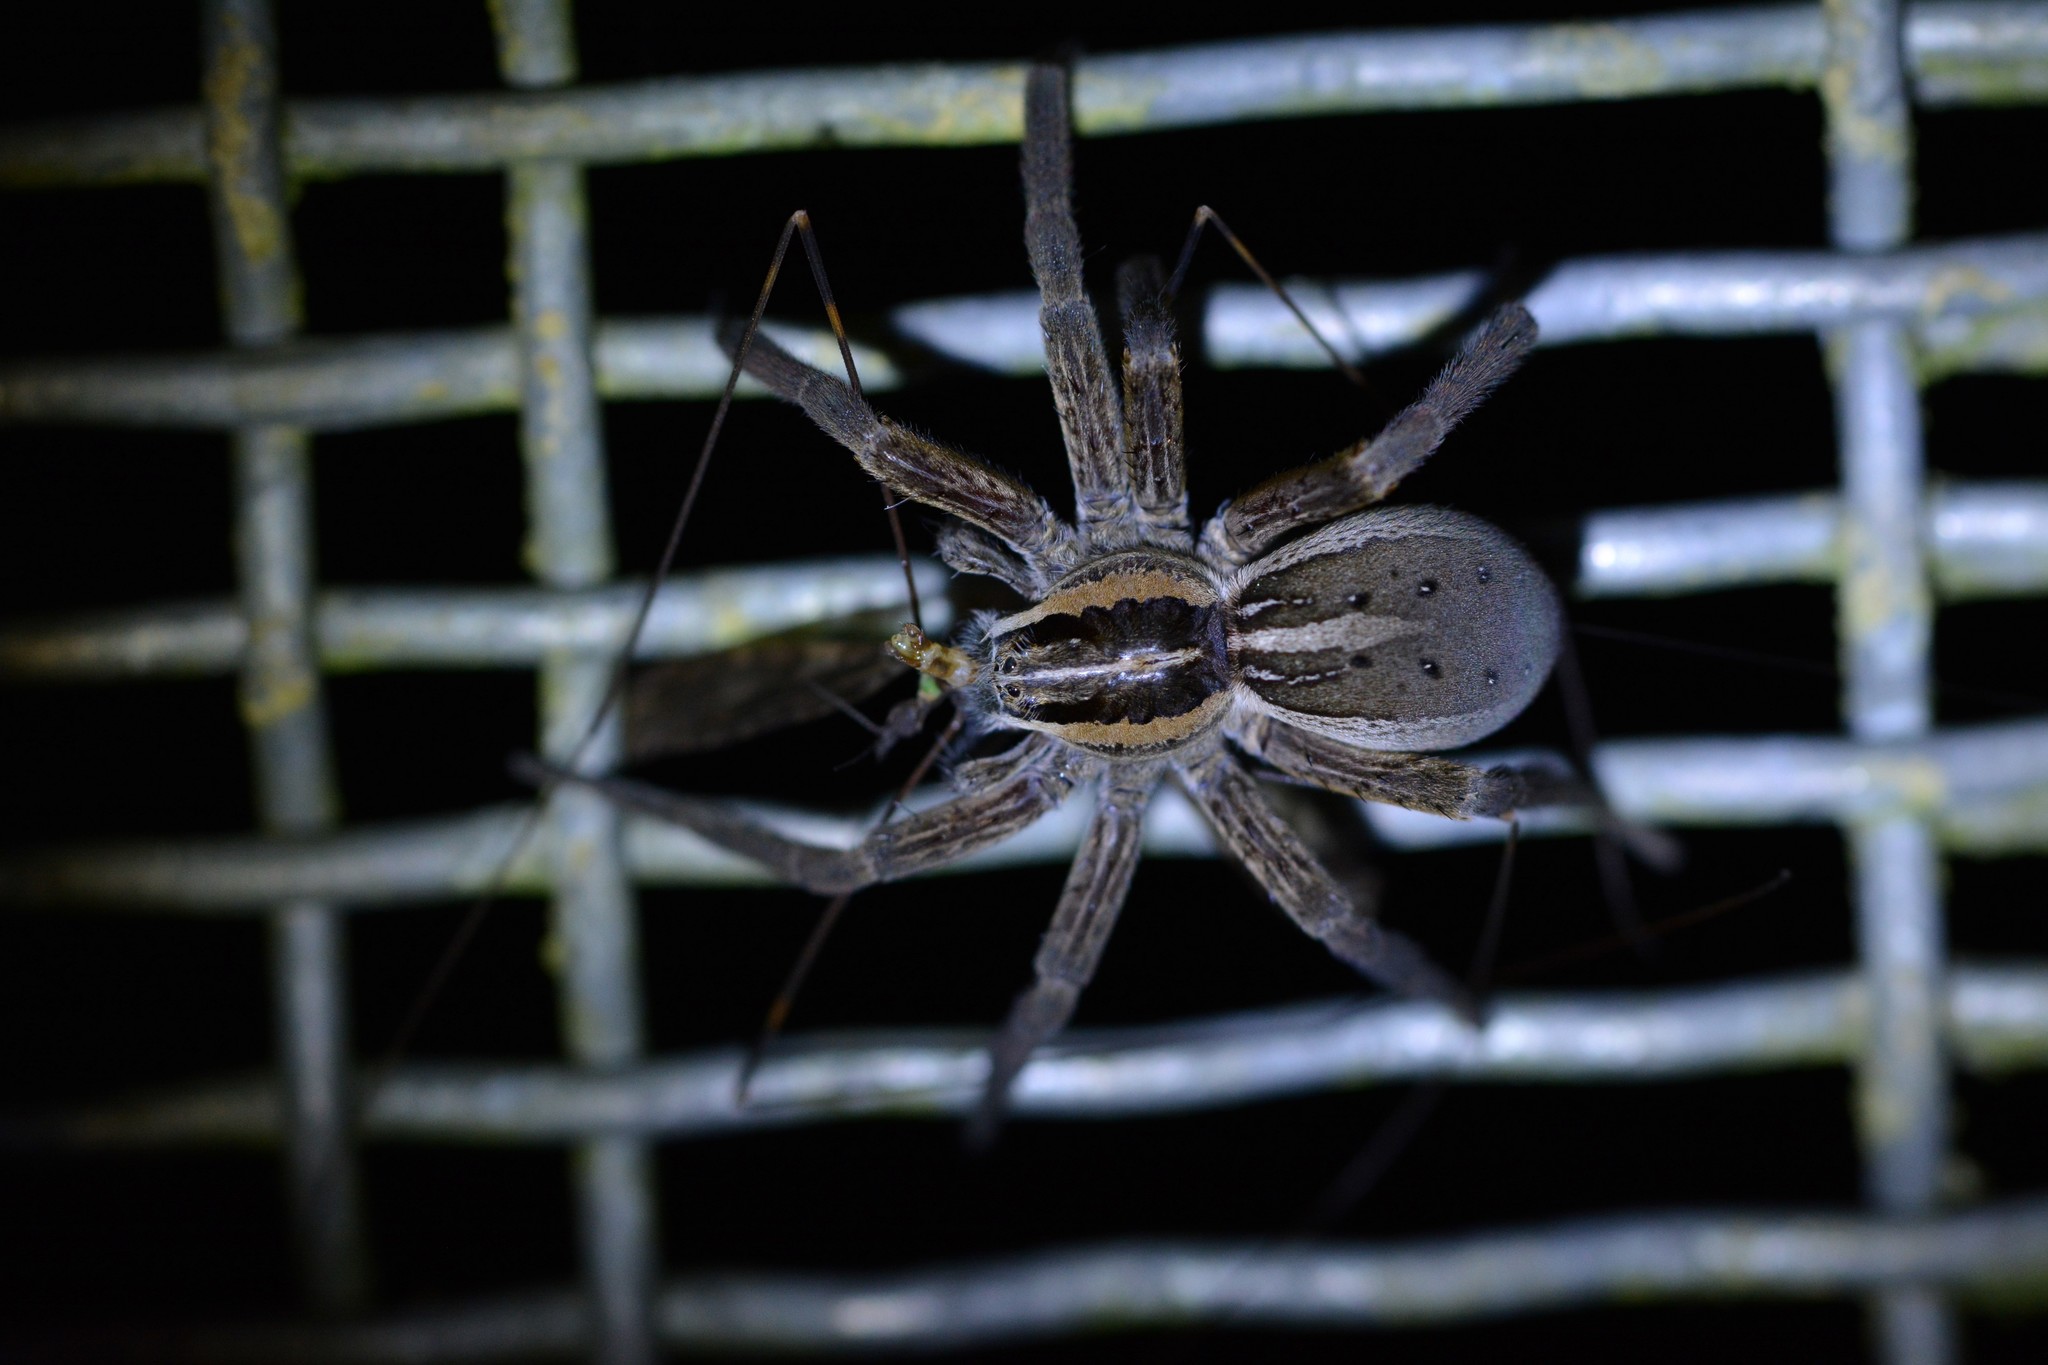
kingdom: Animalia
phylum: Arthropoda
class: Arachnida
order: Araneae
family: Pisauridae
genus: Dolomedes
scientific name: Dolomedes minor
